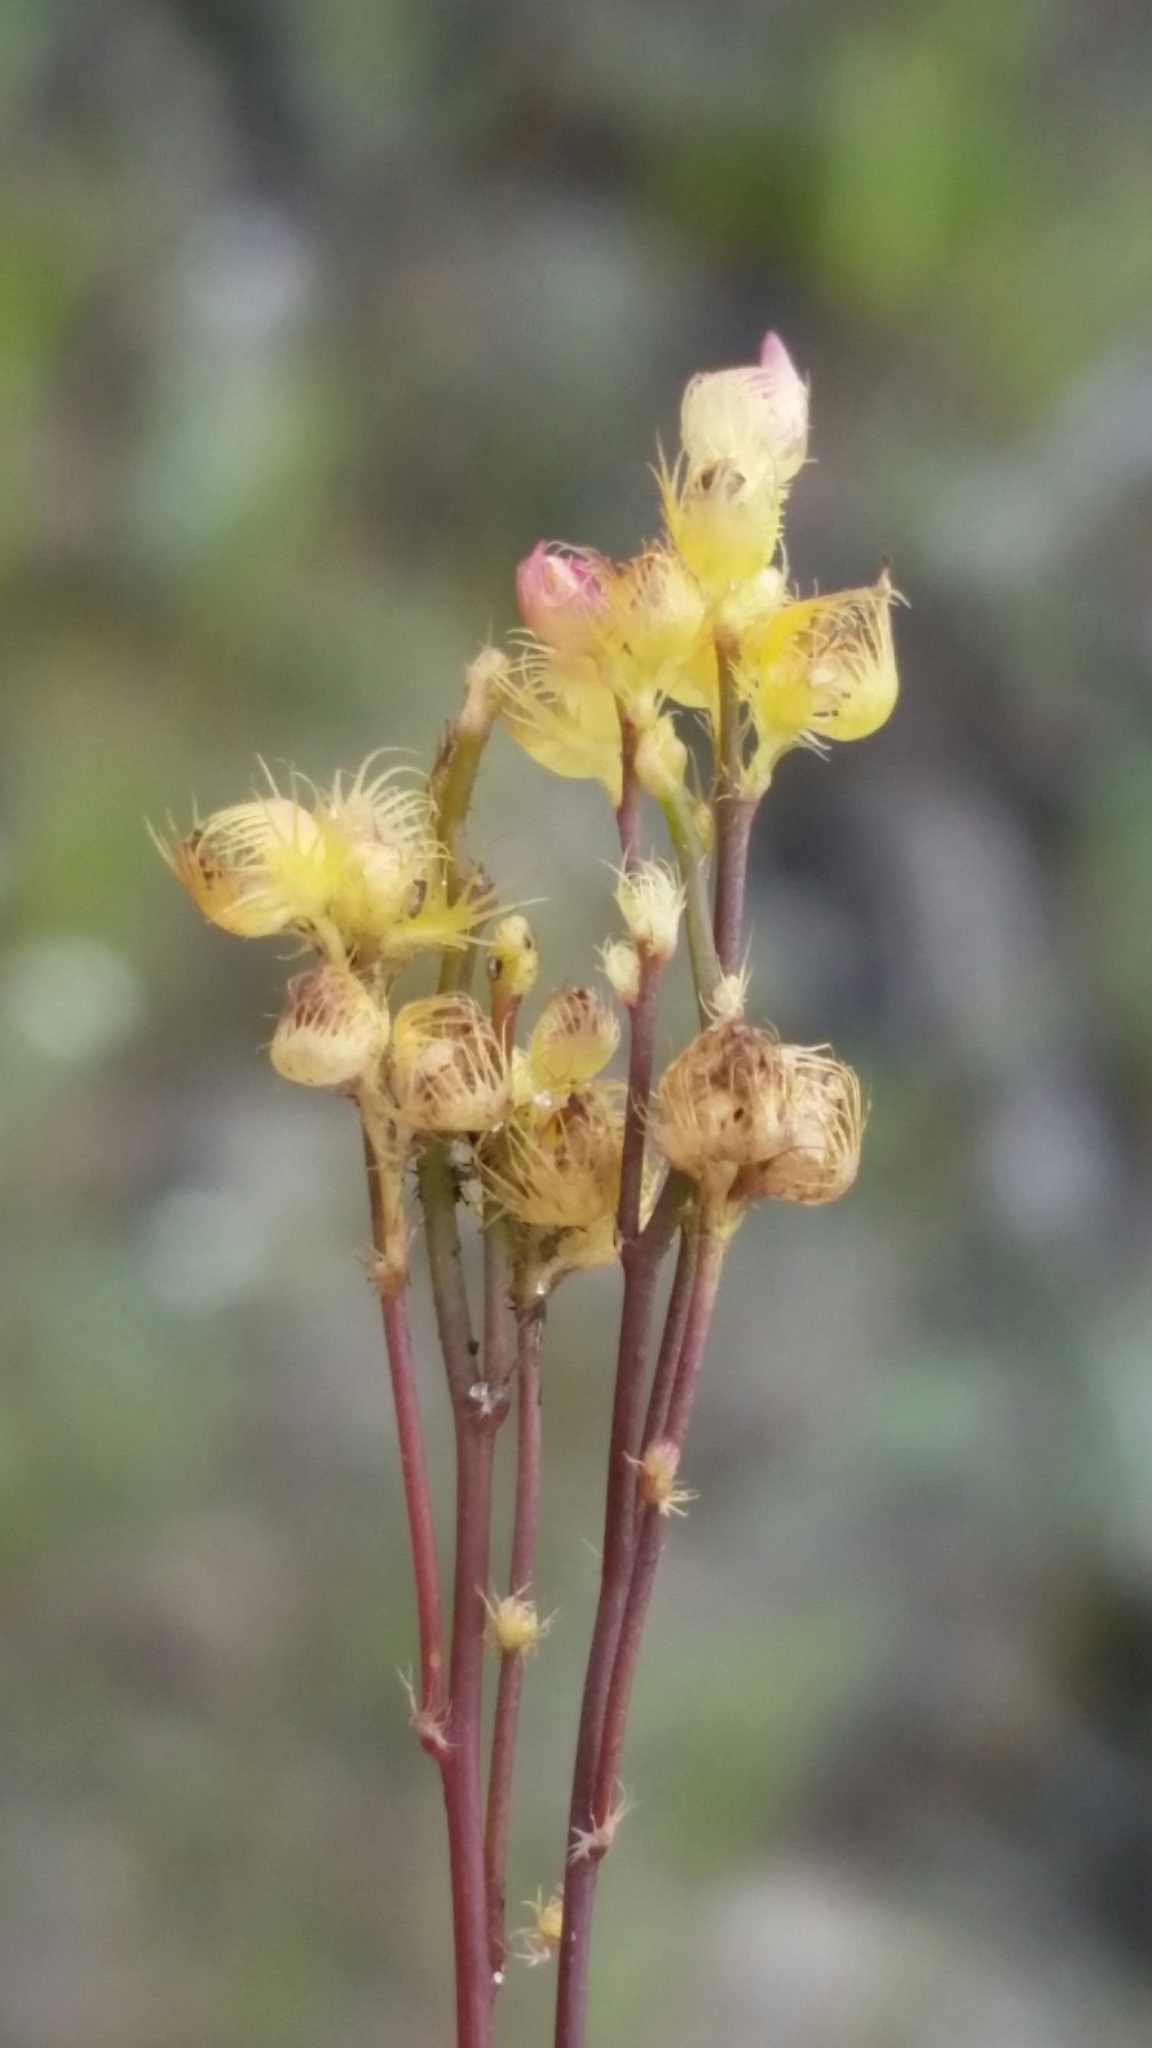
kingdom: Plantae
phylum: Tracheophyta
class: Magnoliopsida
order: Lamiales
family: Lentibulariaceae
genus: Utricularia
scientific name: Utricularia simulans
